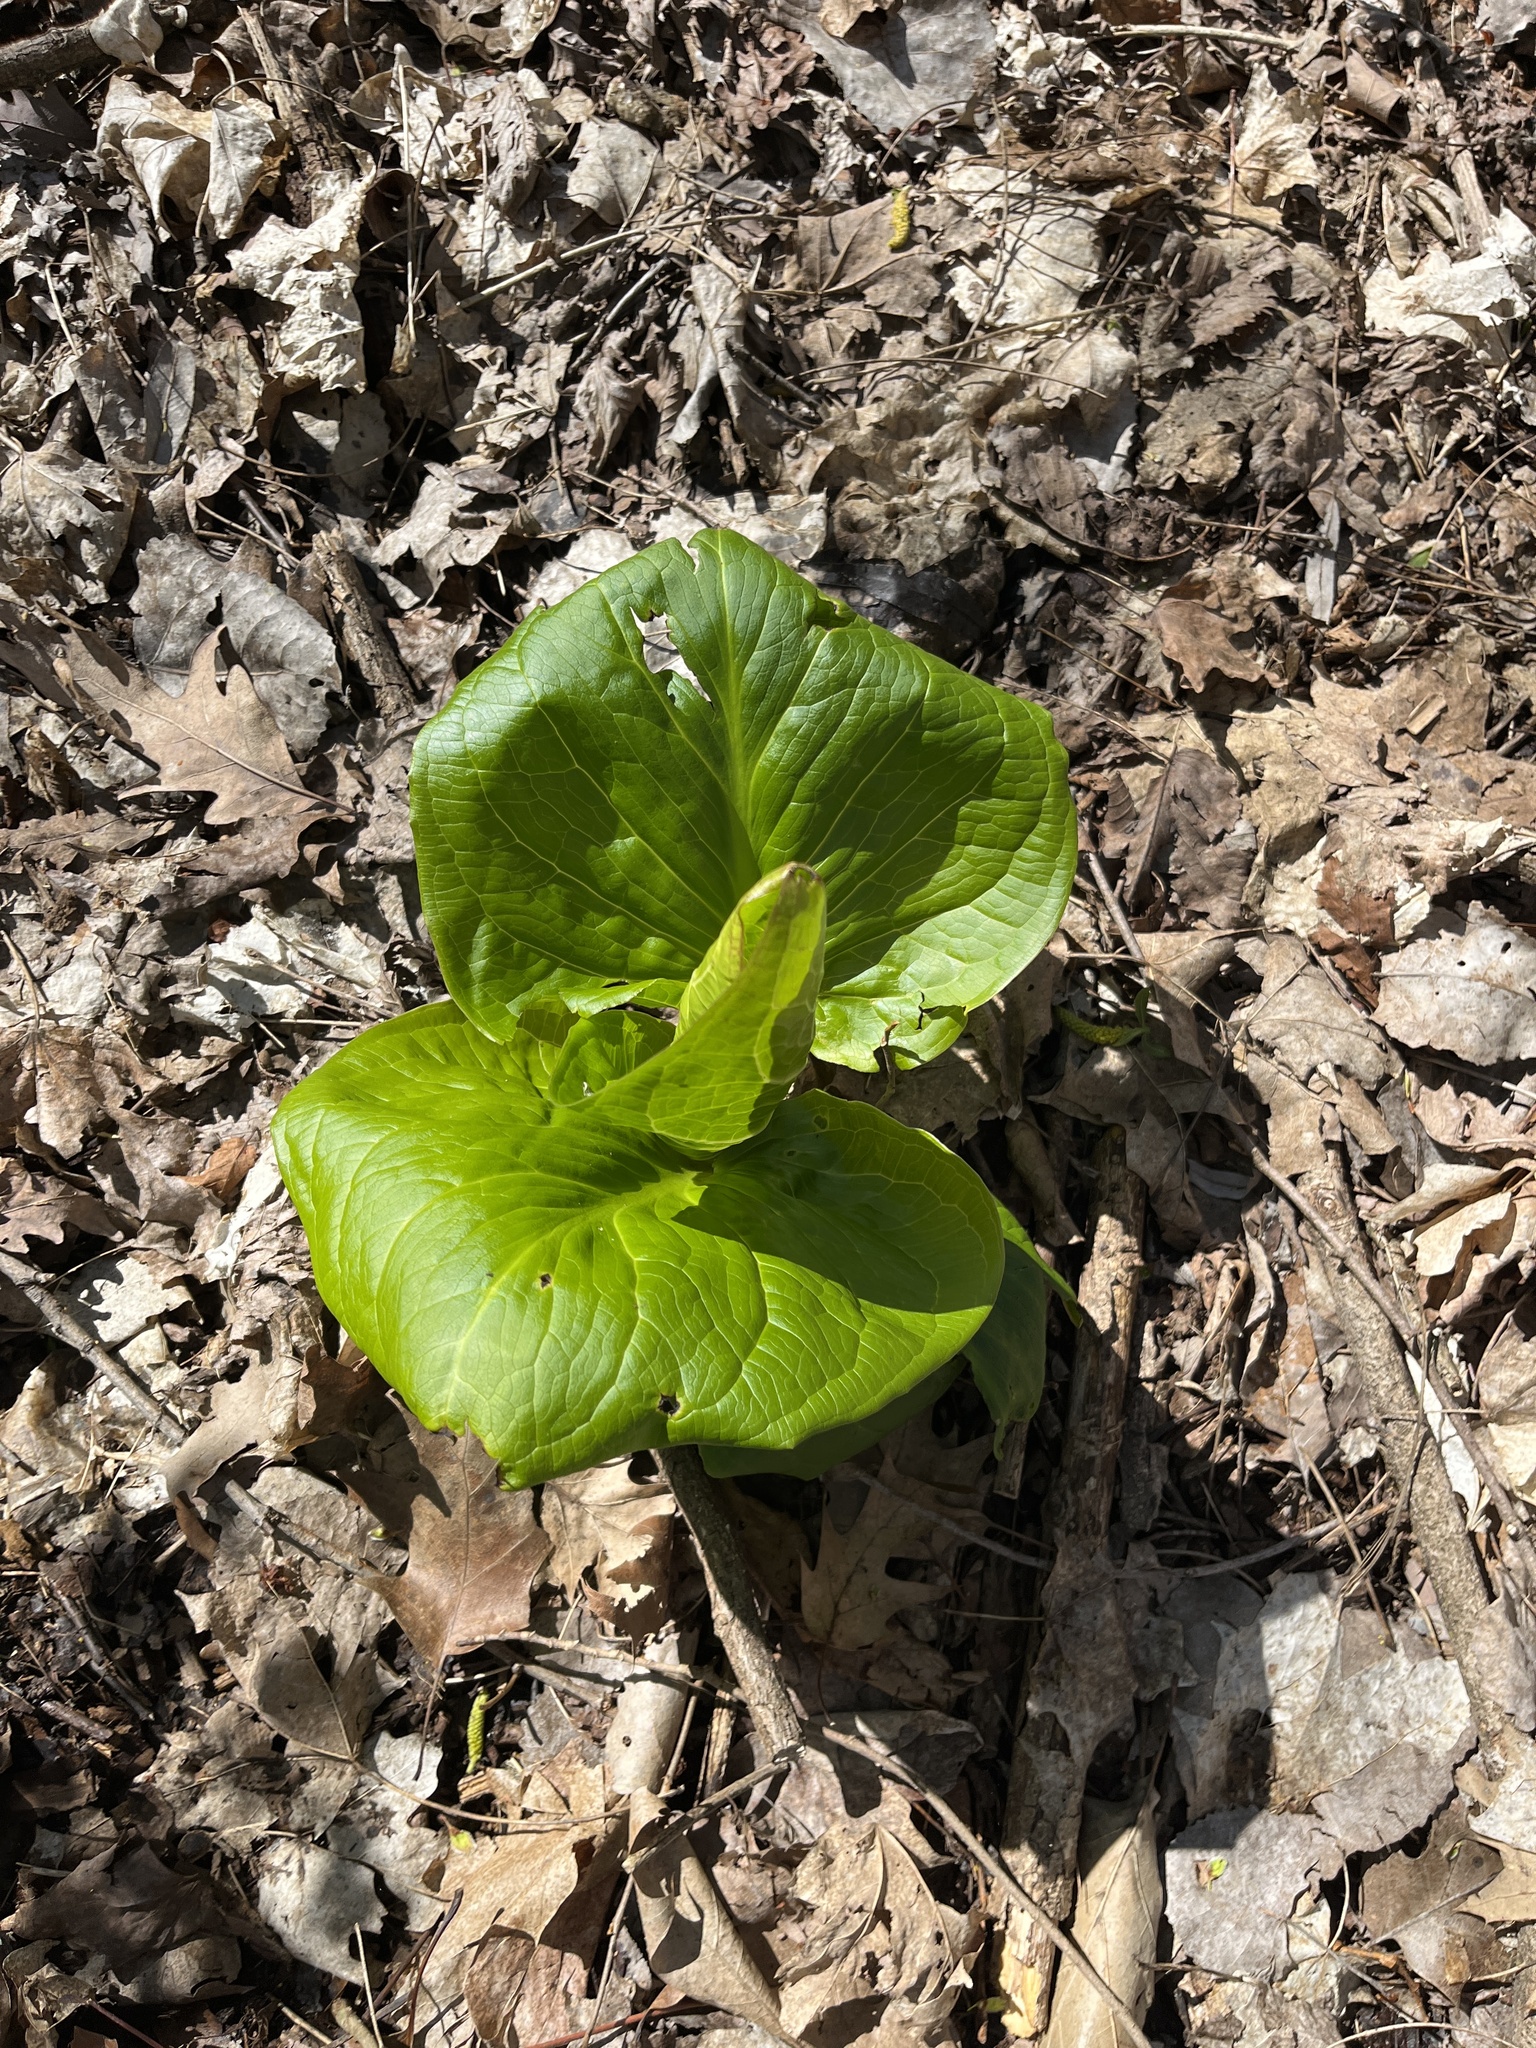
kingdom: Plantae
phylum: Tracheophyta
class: Liliopsida
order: Alismatales
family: Araceae
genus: Symplocarpus
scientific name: Symplocarpus foetidus
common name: Eastern skunk cabbage
